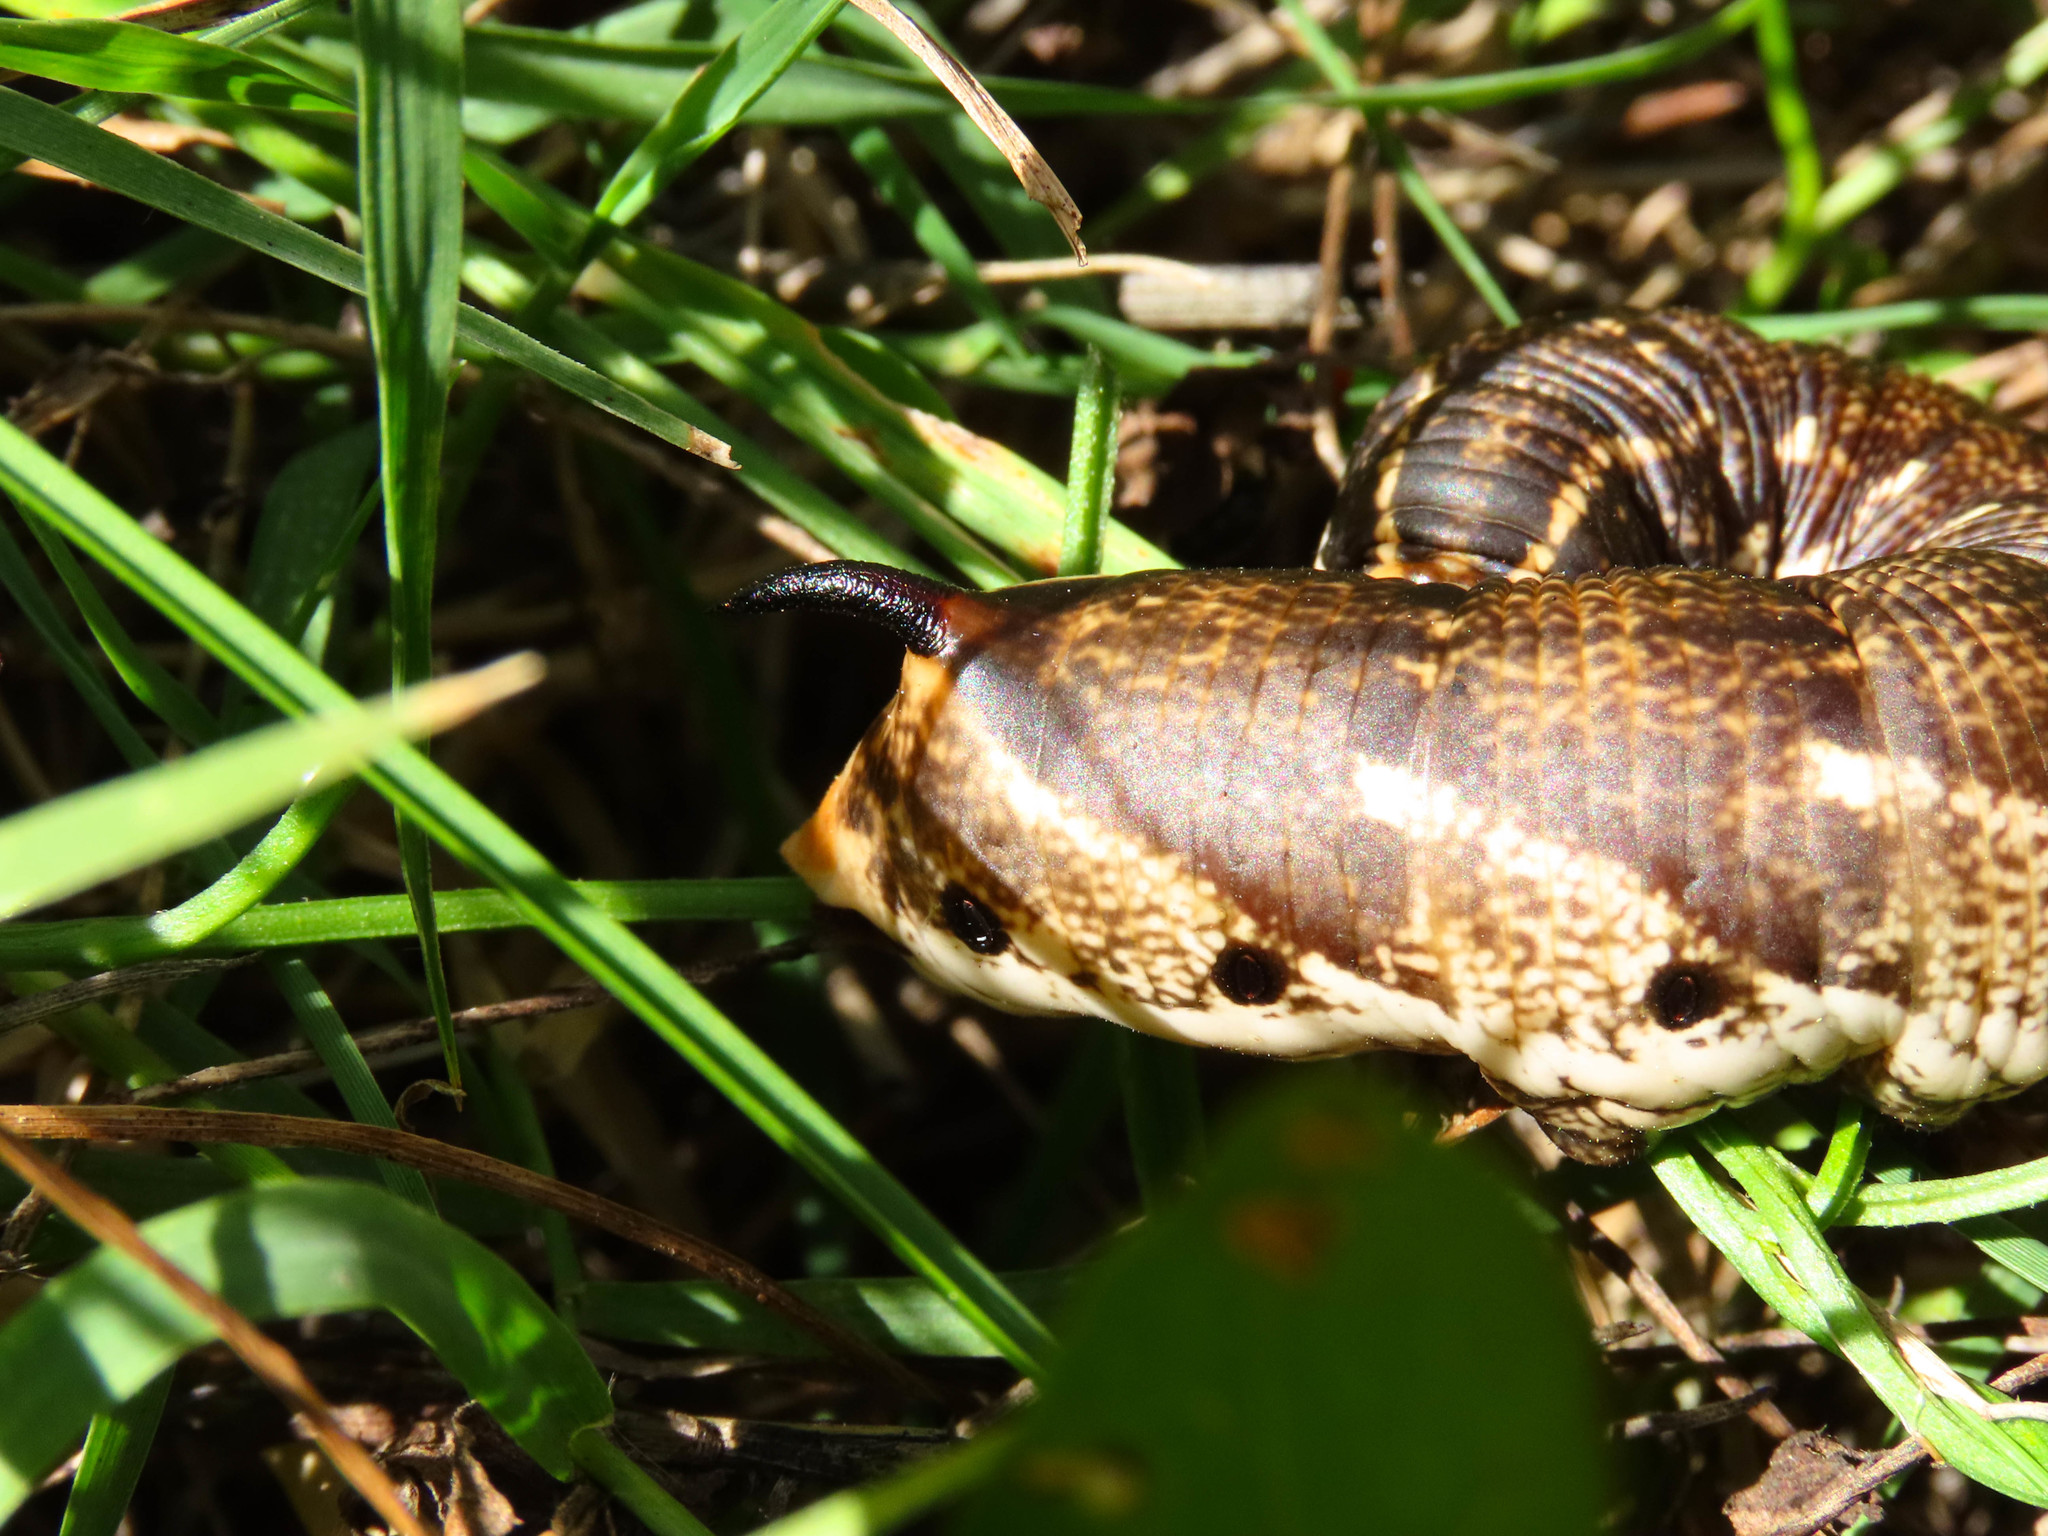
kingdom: Animalia
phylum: Arthropoda
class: Insecta
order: Lepidoptera
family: Sphingidae
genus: Agrius
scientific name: Agrius convolvuli
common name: Convolvulus hawkmoth
